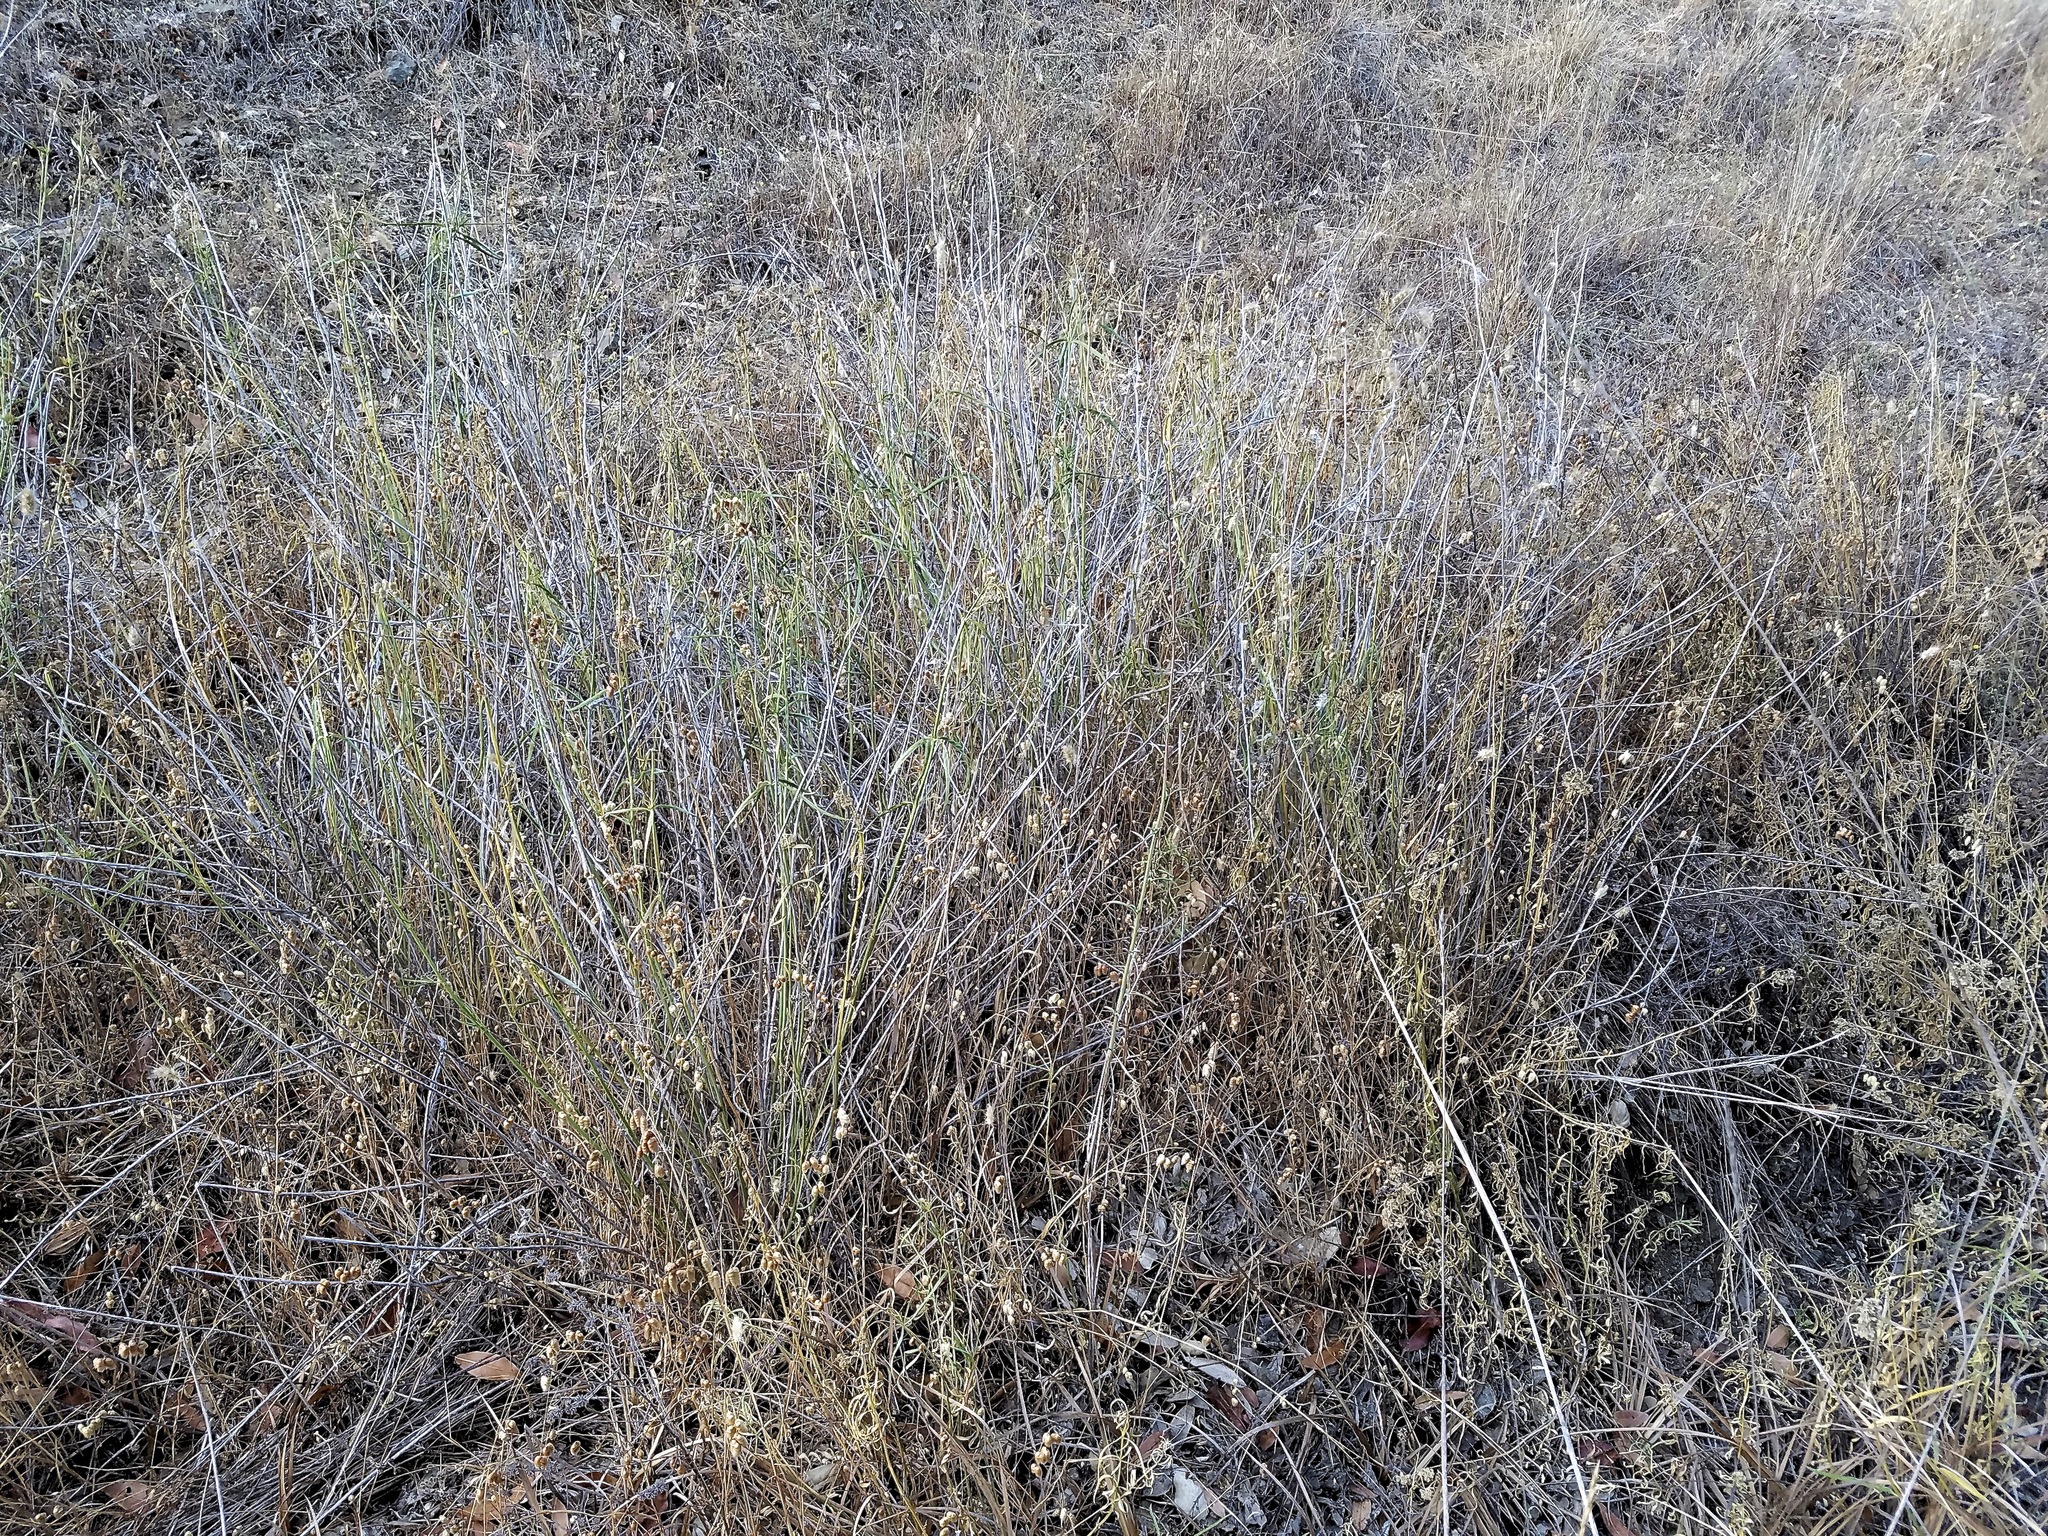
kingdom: Plantae
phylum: Tracheophyta
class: Magnoliopsida
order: Gentianales
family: Apocynaceae
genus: Asclepias
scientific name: Asclepias fascicularis
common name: Mexican milkweed
